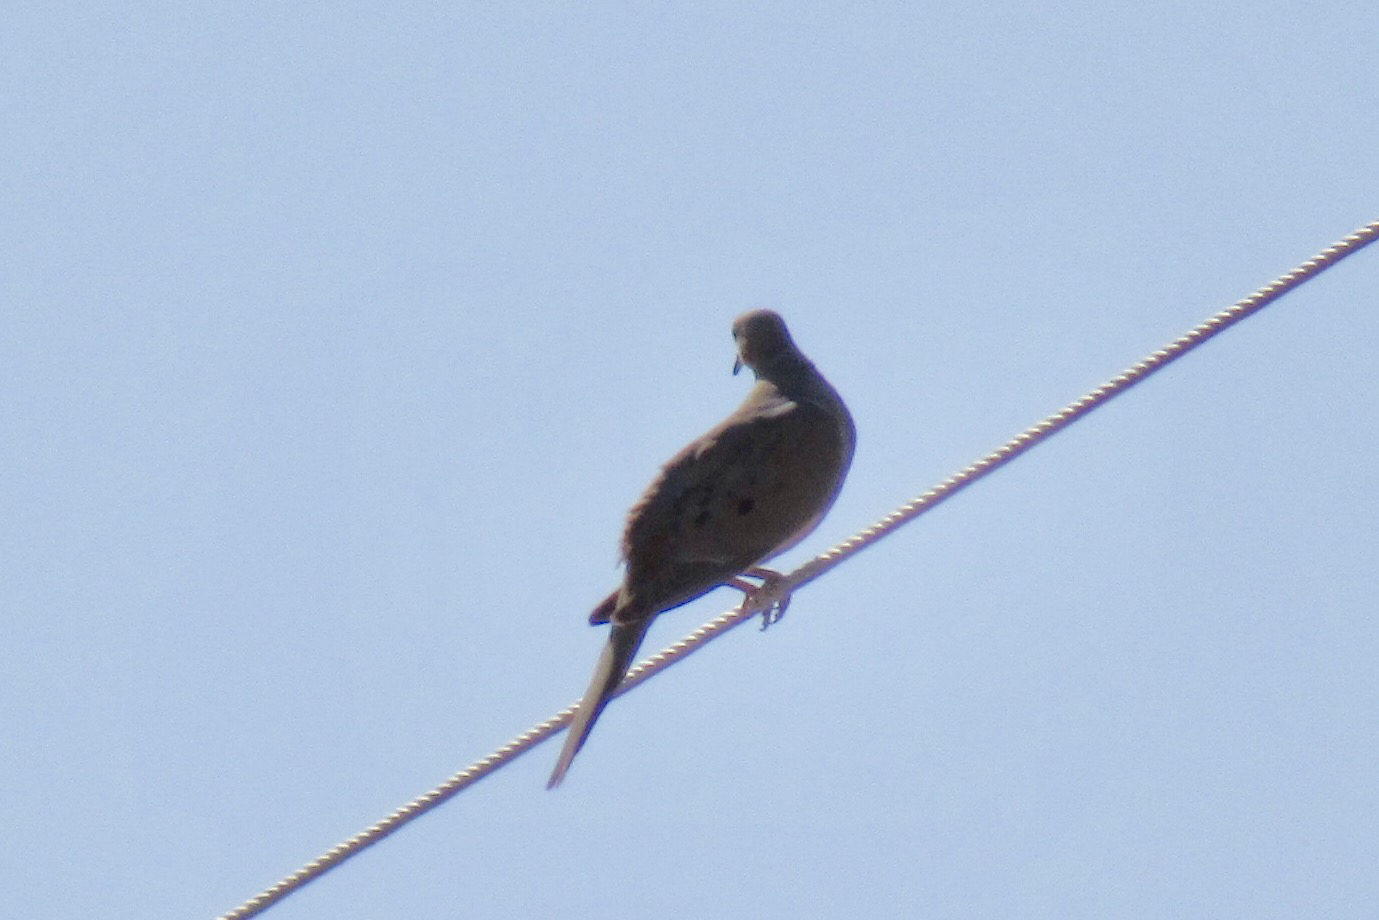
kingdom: Animalia
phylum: Chordata
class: Aves
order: Columbiformes
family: Columbidae
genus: Zenaida
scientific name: Zenaida macroura
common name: Mourning dove
